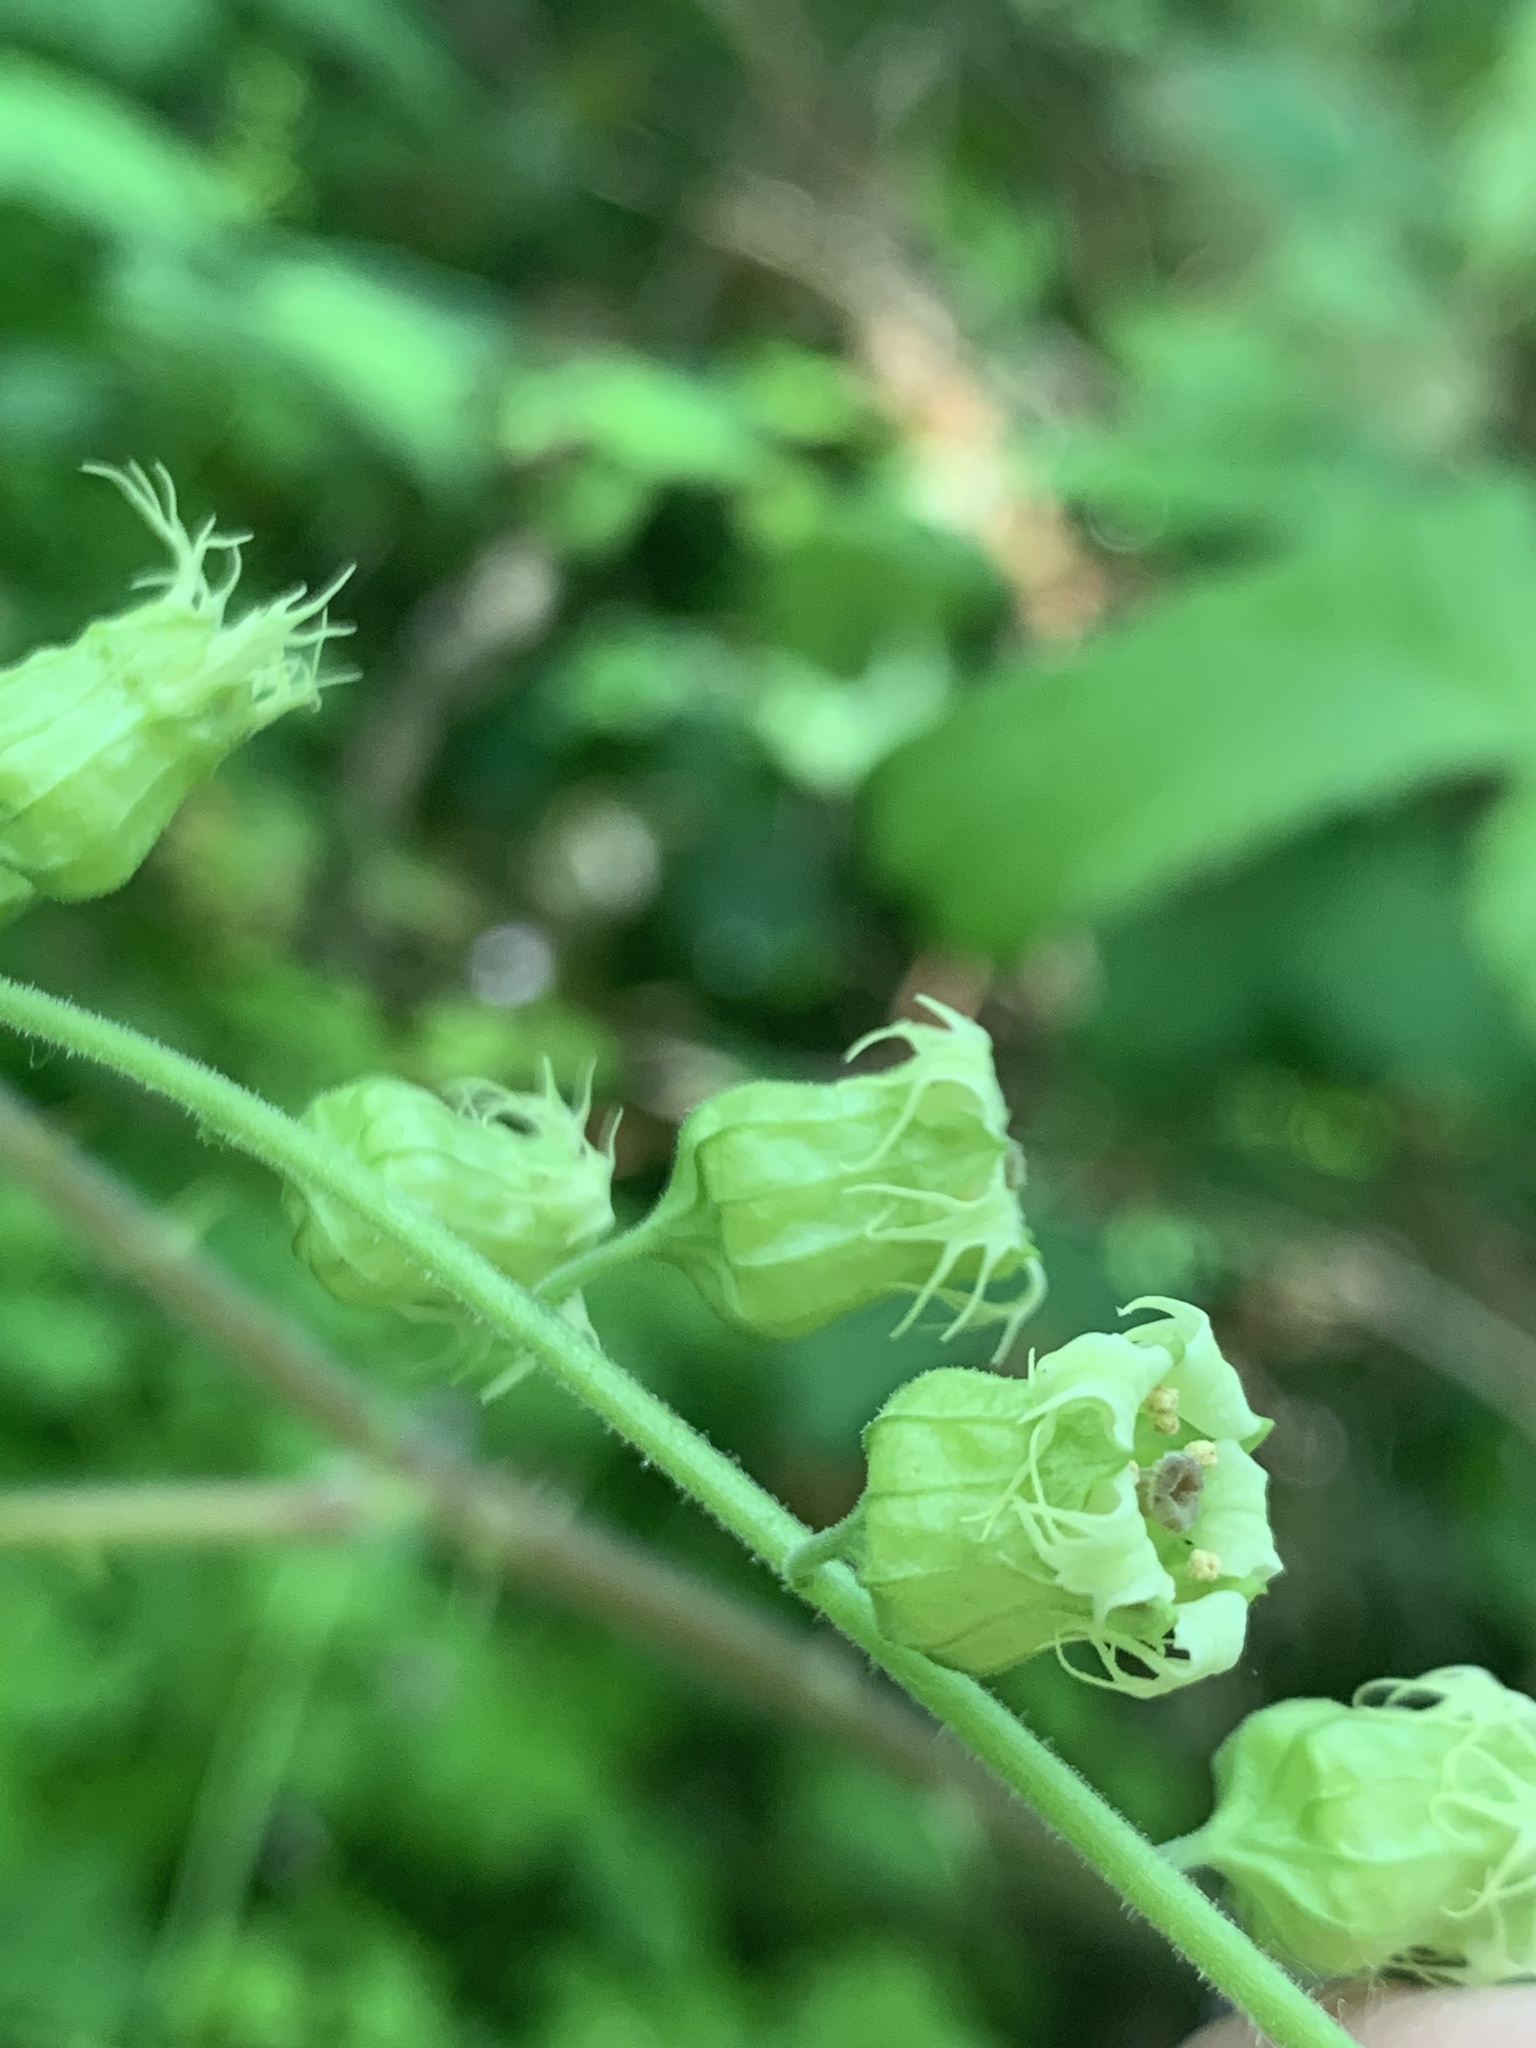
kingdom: Plantae
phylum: Tracheophyta
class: Magnoliopsida
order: Saxifragales
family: Saxifragaceae
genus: Tellima
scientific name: Tellima grandiflora
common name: Fringecups
